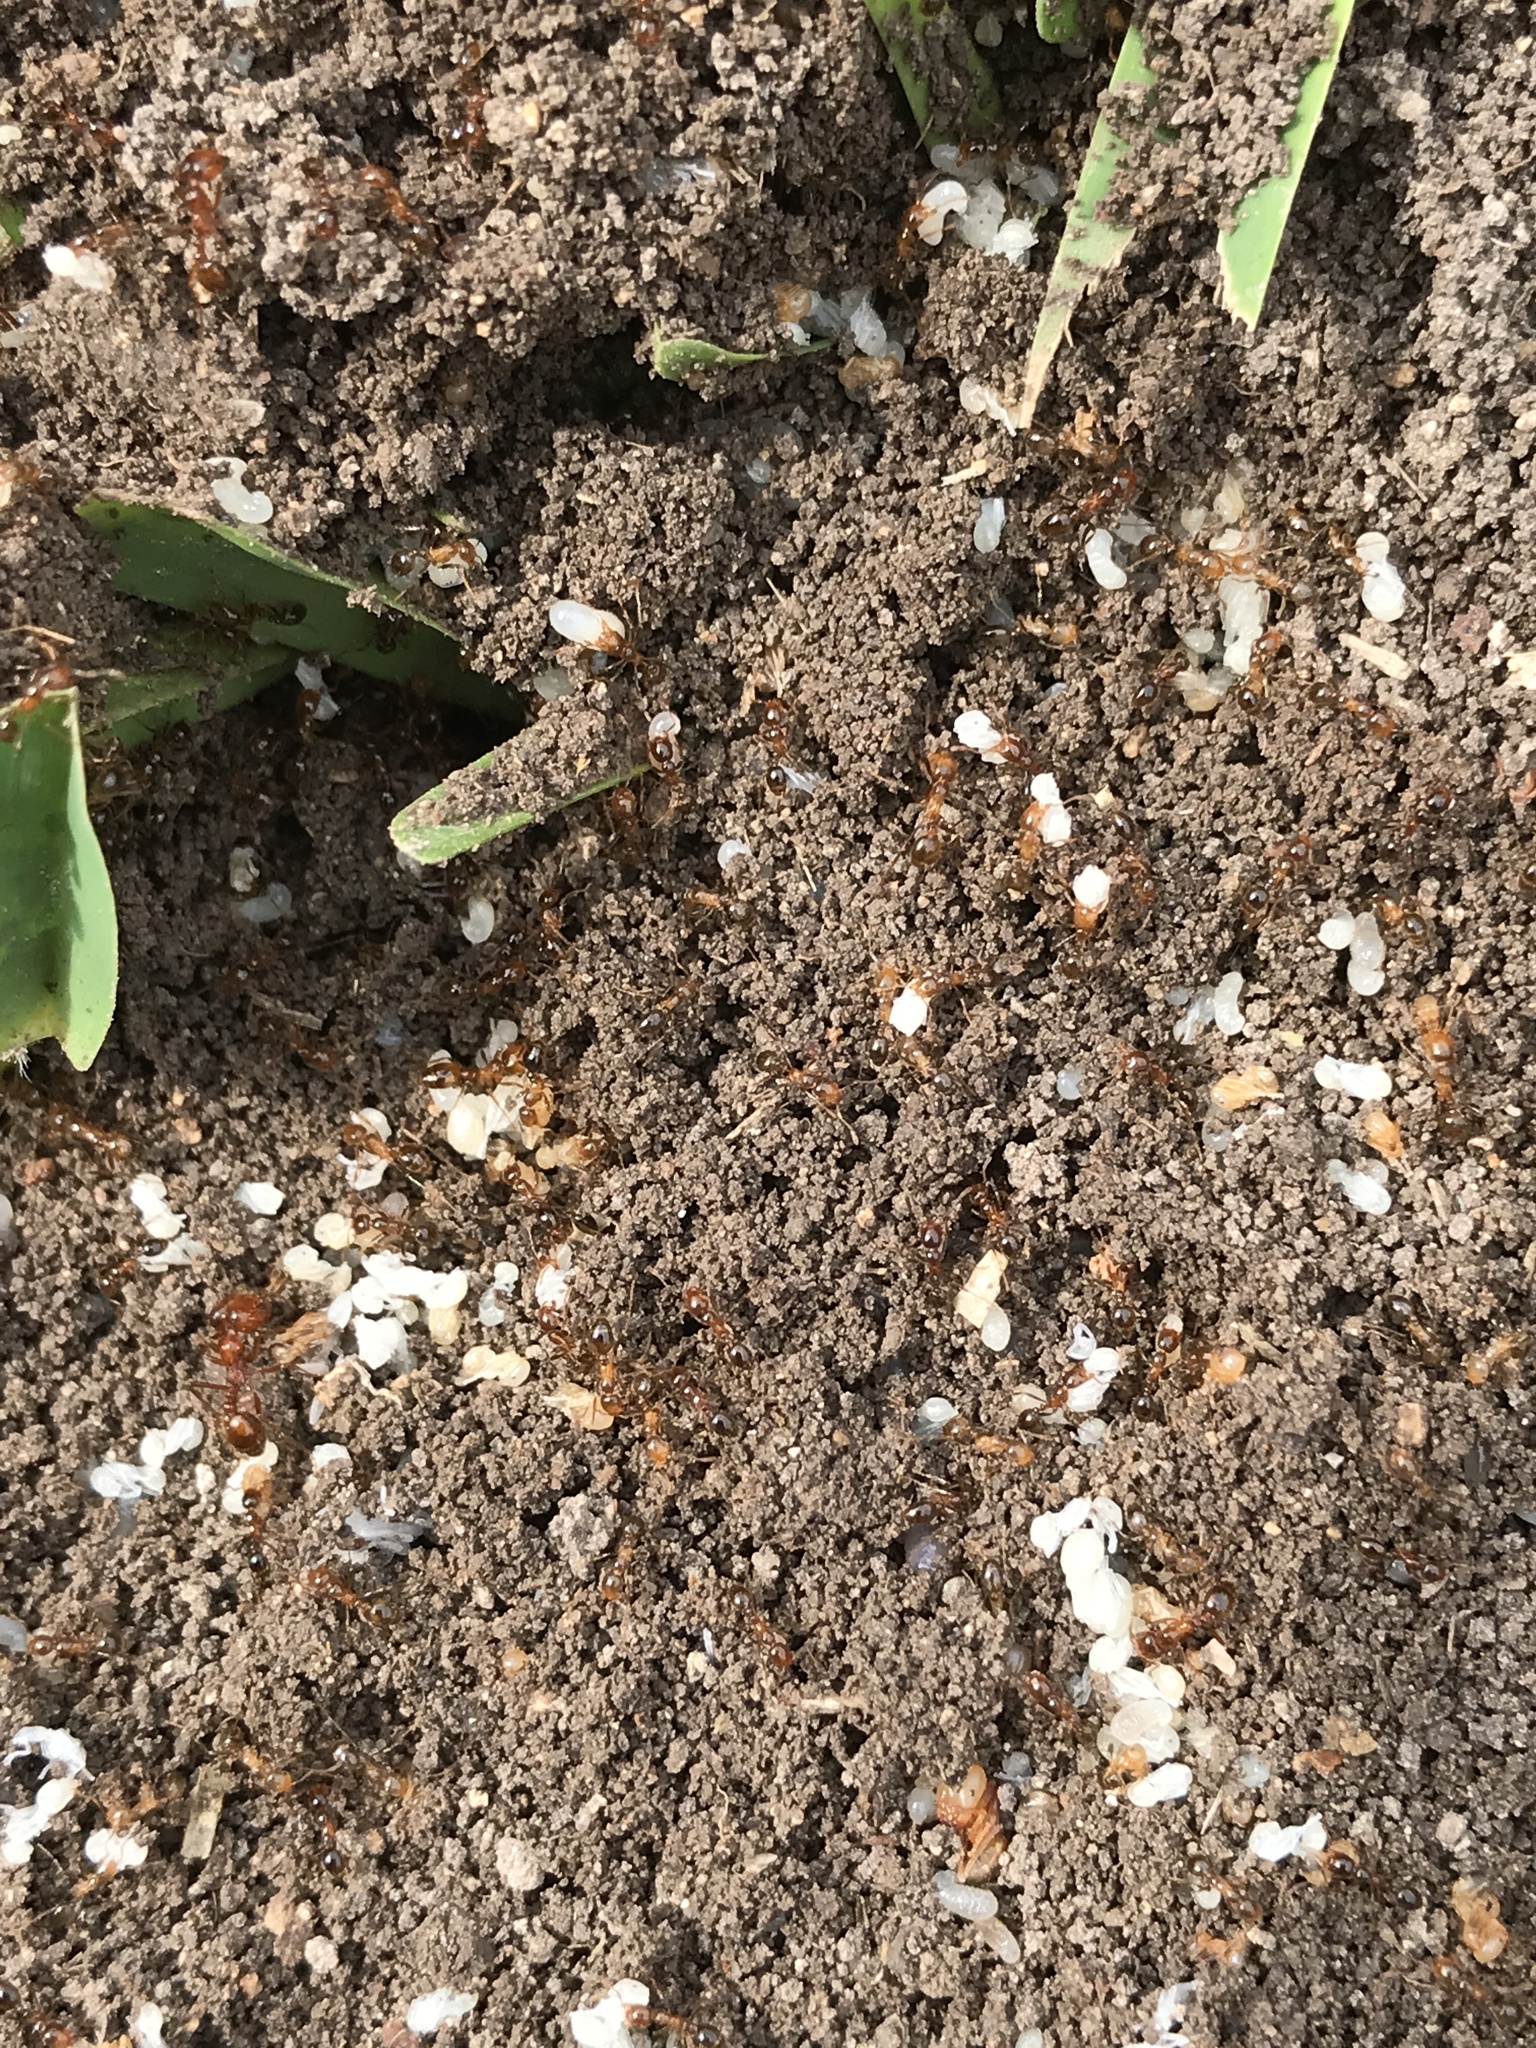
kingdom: Animalia
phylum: Arthropoda
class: Insecta
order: Hymenoptera
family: Formicidae
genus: Solenopsis
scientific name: Solenopsis geminata
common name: Tropical fire ant
